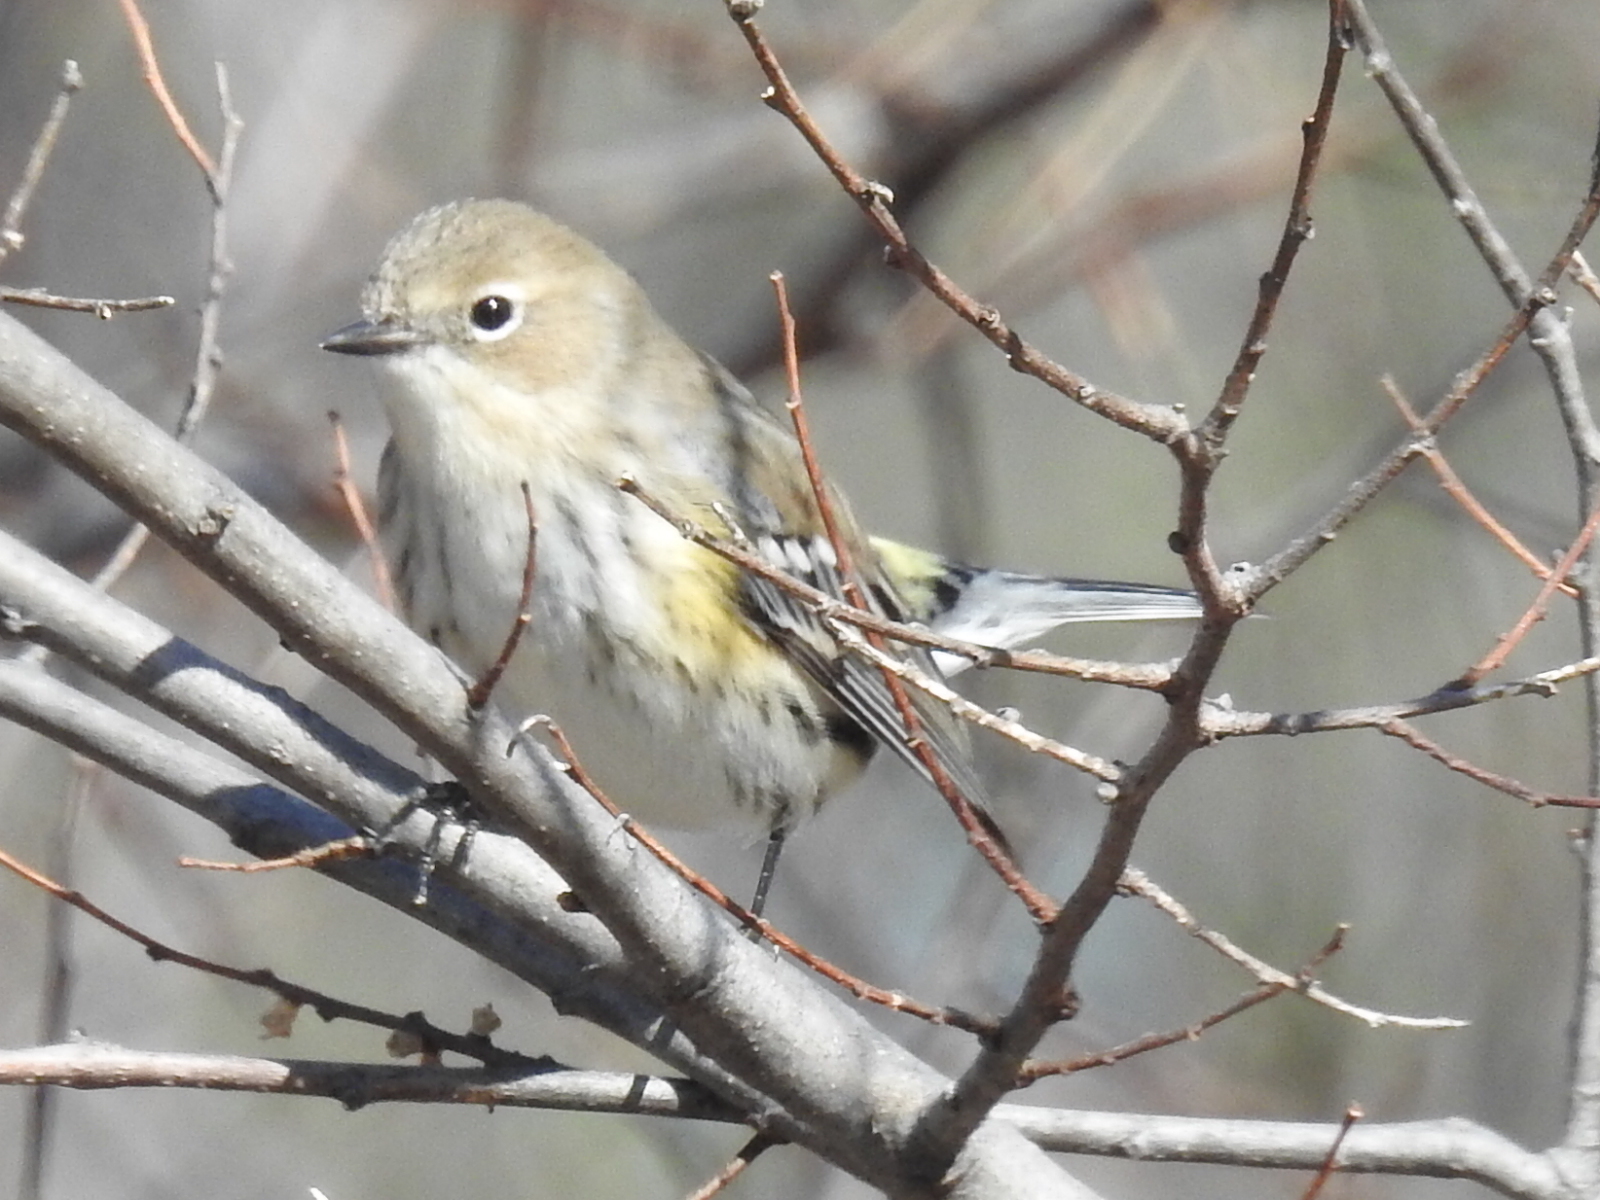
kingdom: Animalia
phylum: Chordata
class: Aves
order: Passeriformes
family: Parulidae
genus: Setophaga
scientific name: Setophaga coronata
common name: Myrtle warbler
